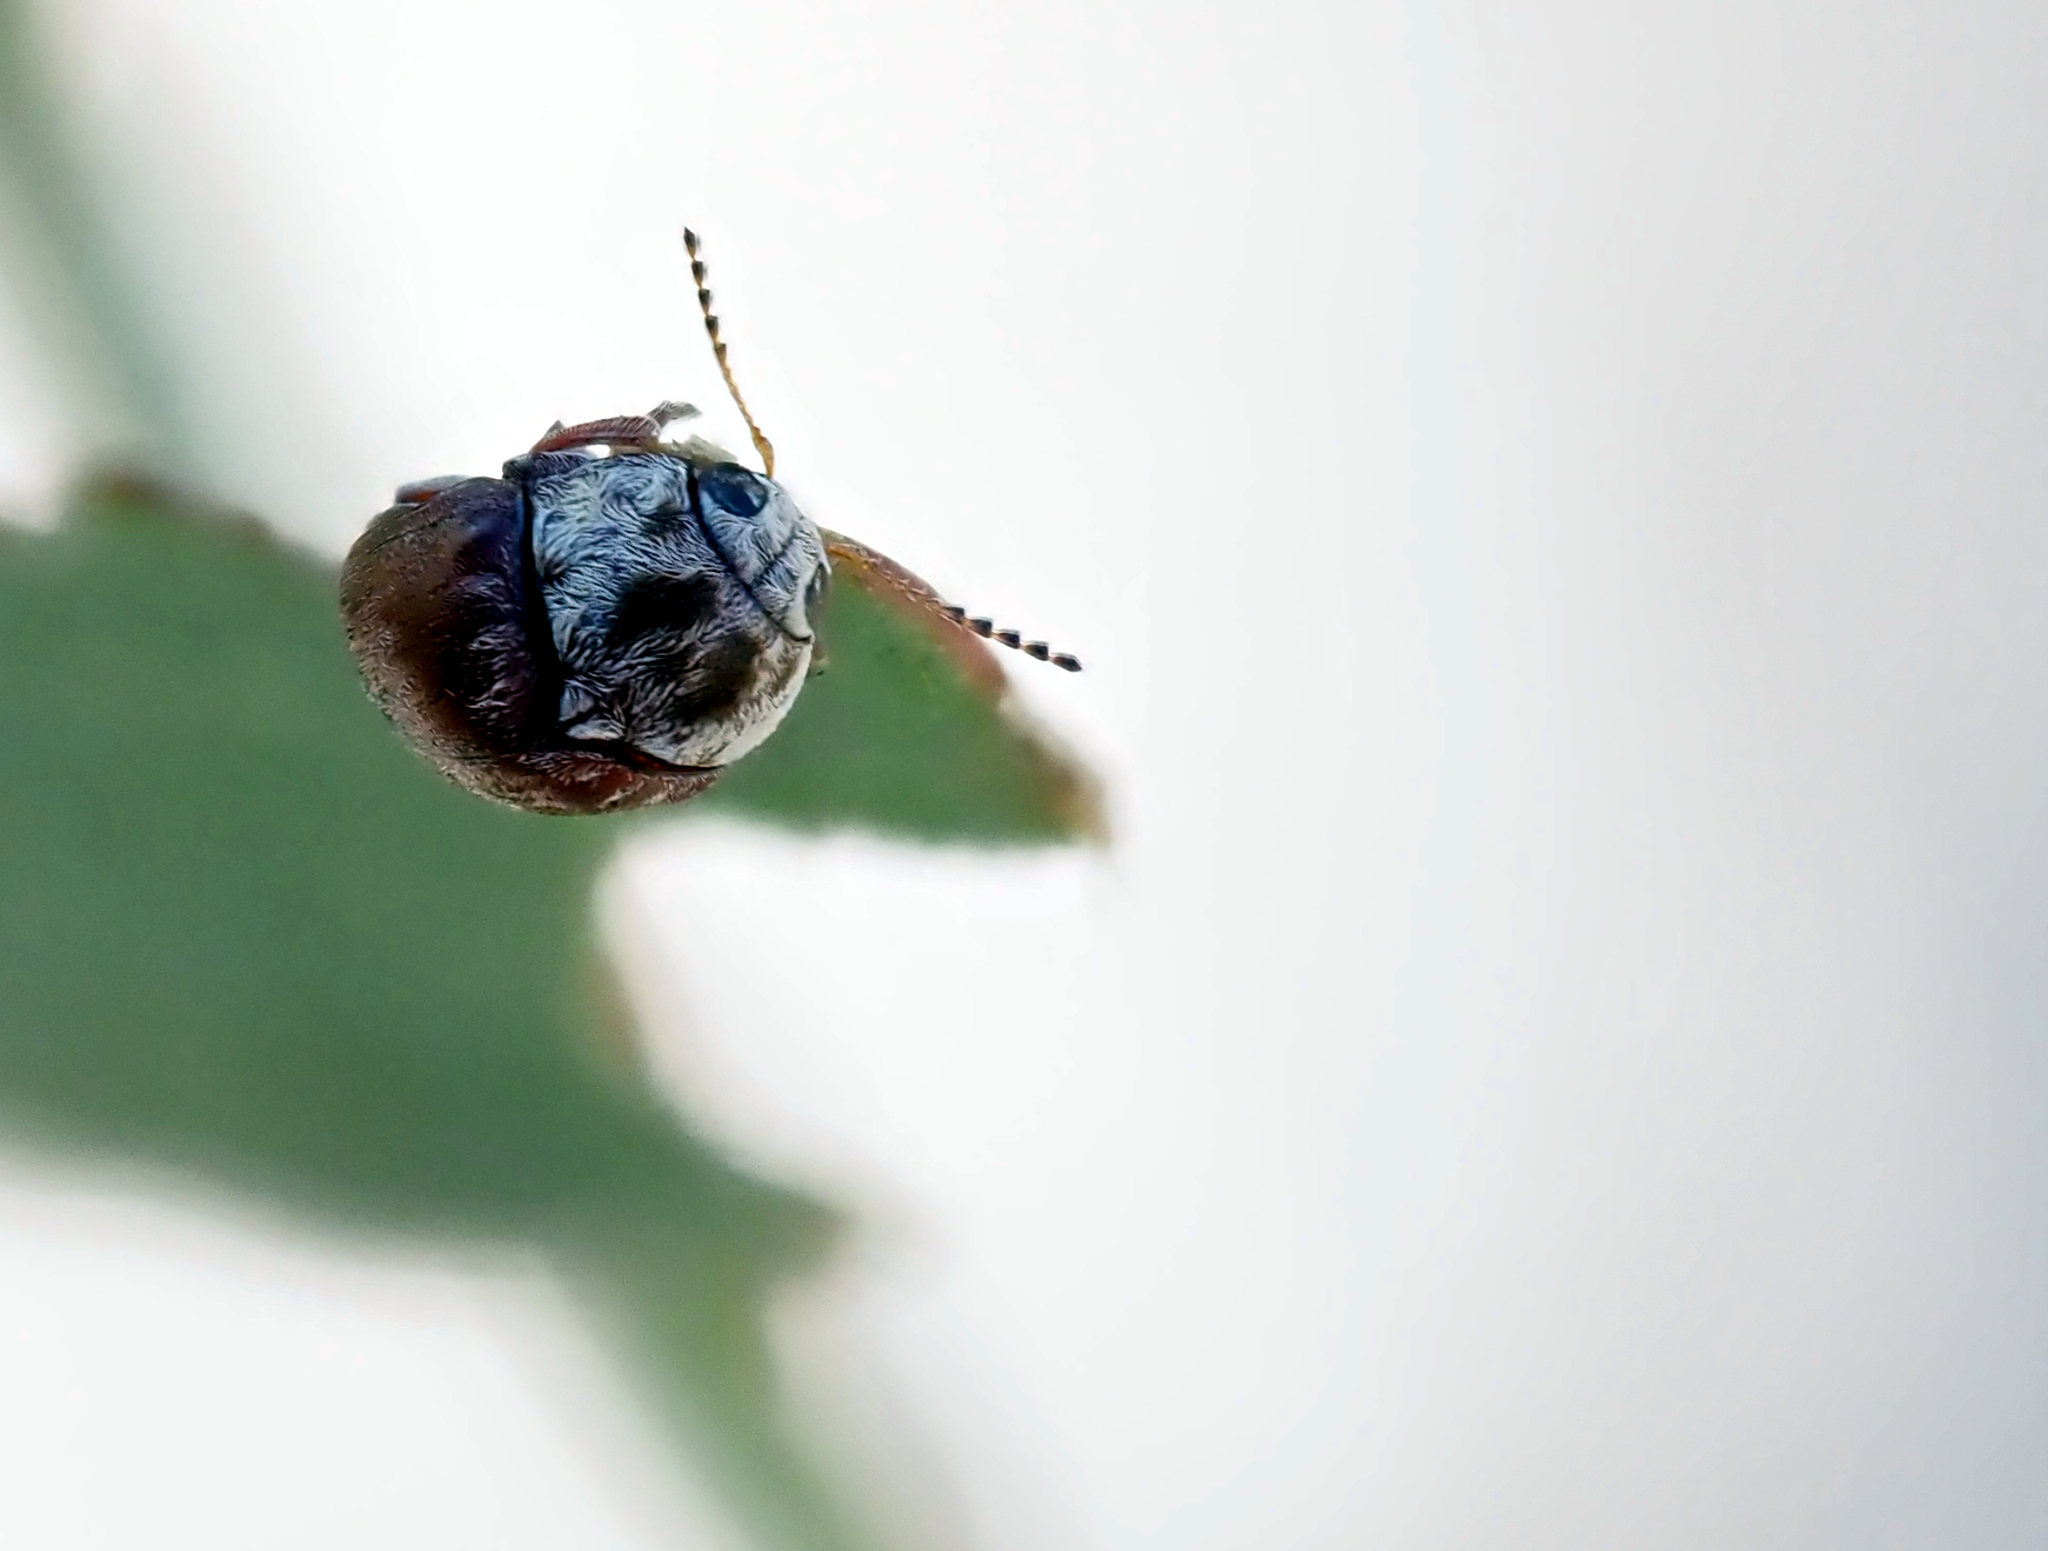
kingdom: Animalia
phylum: Arthropoda
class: Insecta
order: Coleoptera
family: Chrysomelidae
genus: Ditropidus
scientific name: Ditropidus
